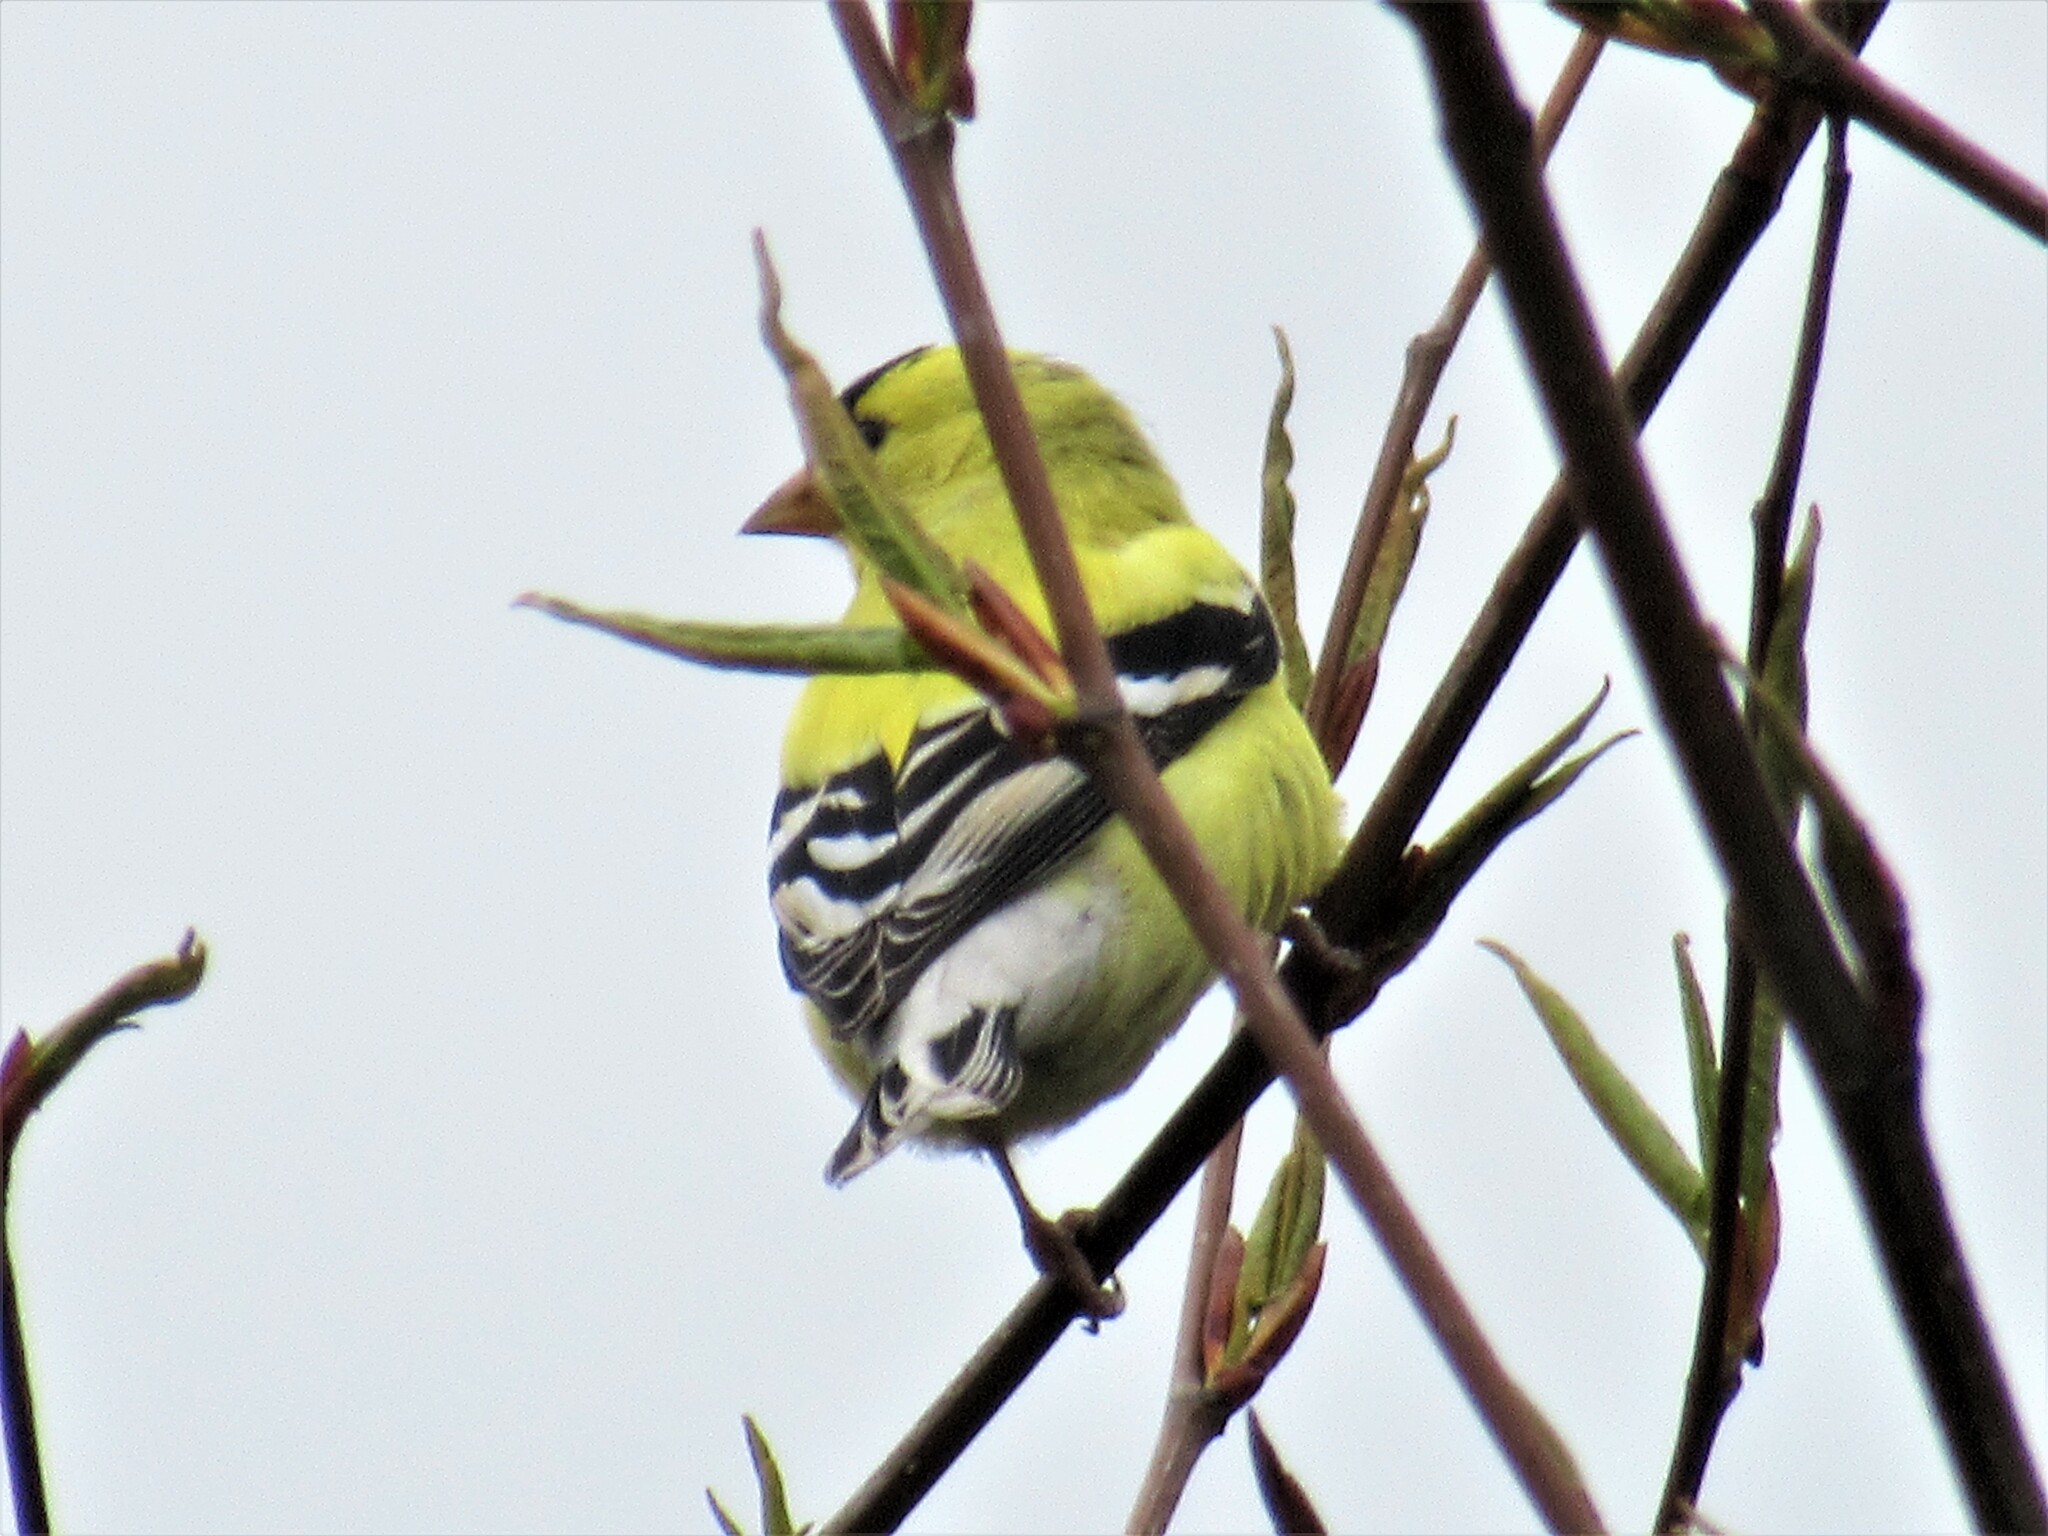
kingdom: Animalia
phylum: Chordata
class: Aves
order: Passeriformes
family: Fringillidae
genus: Spinus
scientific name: Spinus tristis
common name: American goldfinch
